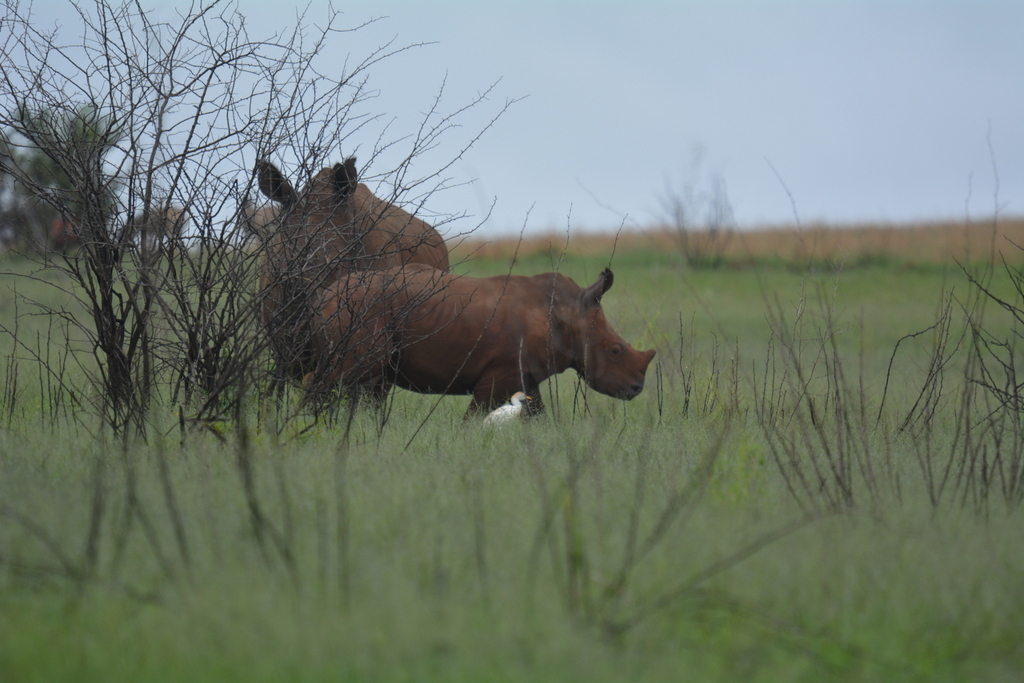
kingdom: Animalia
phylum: Chordata
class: Mammalia
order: Perissodactyla
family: Rhinocerotidae
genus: Ceratotherium
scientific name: Ceratotherium simum
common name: White rhinoceros
